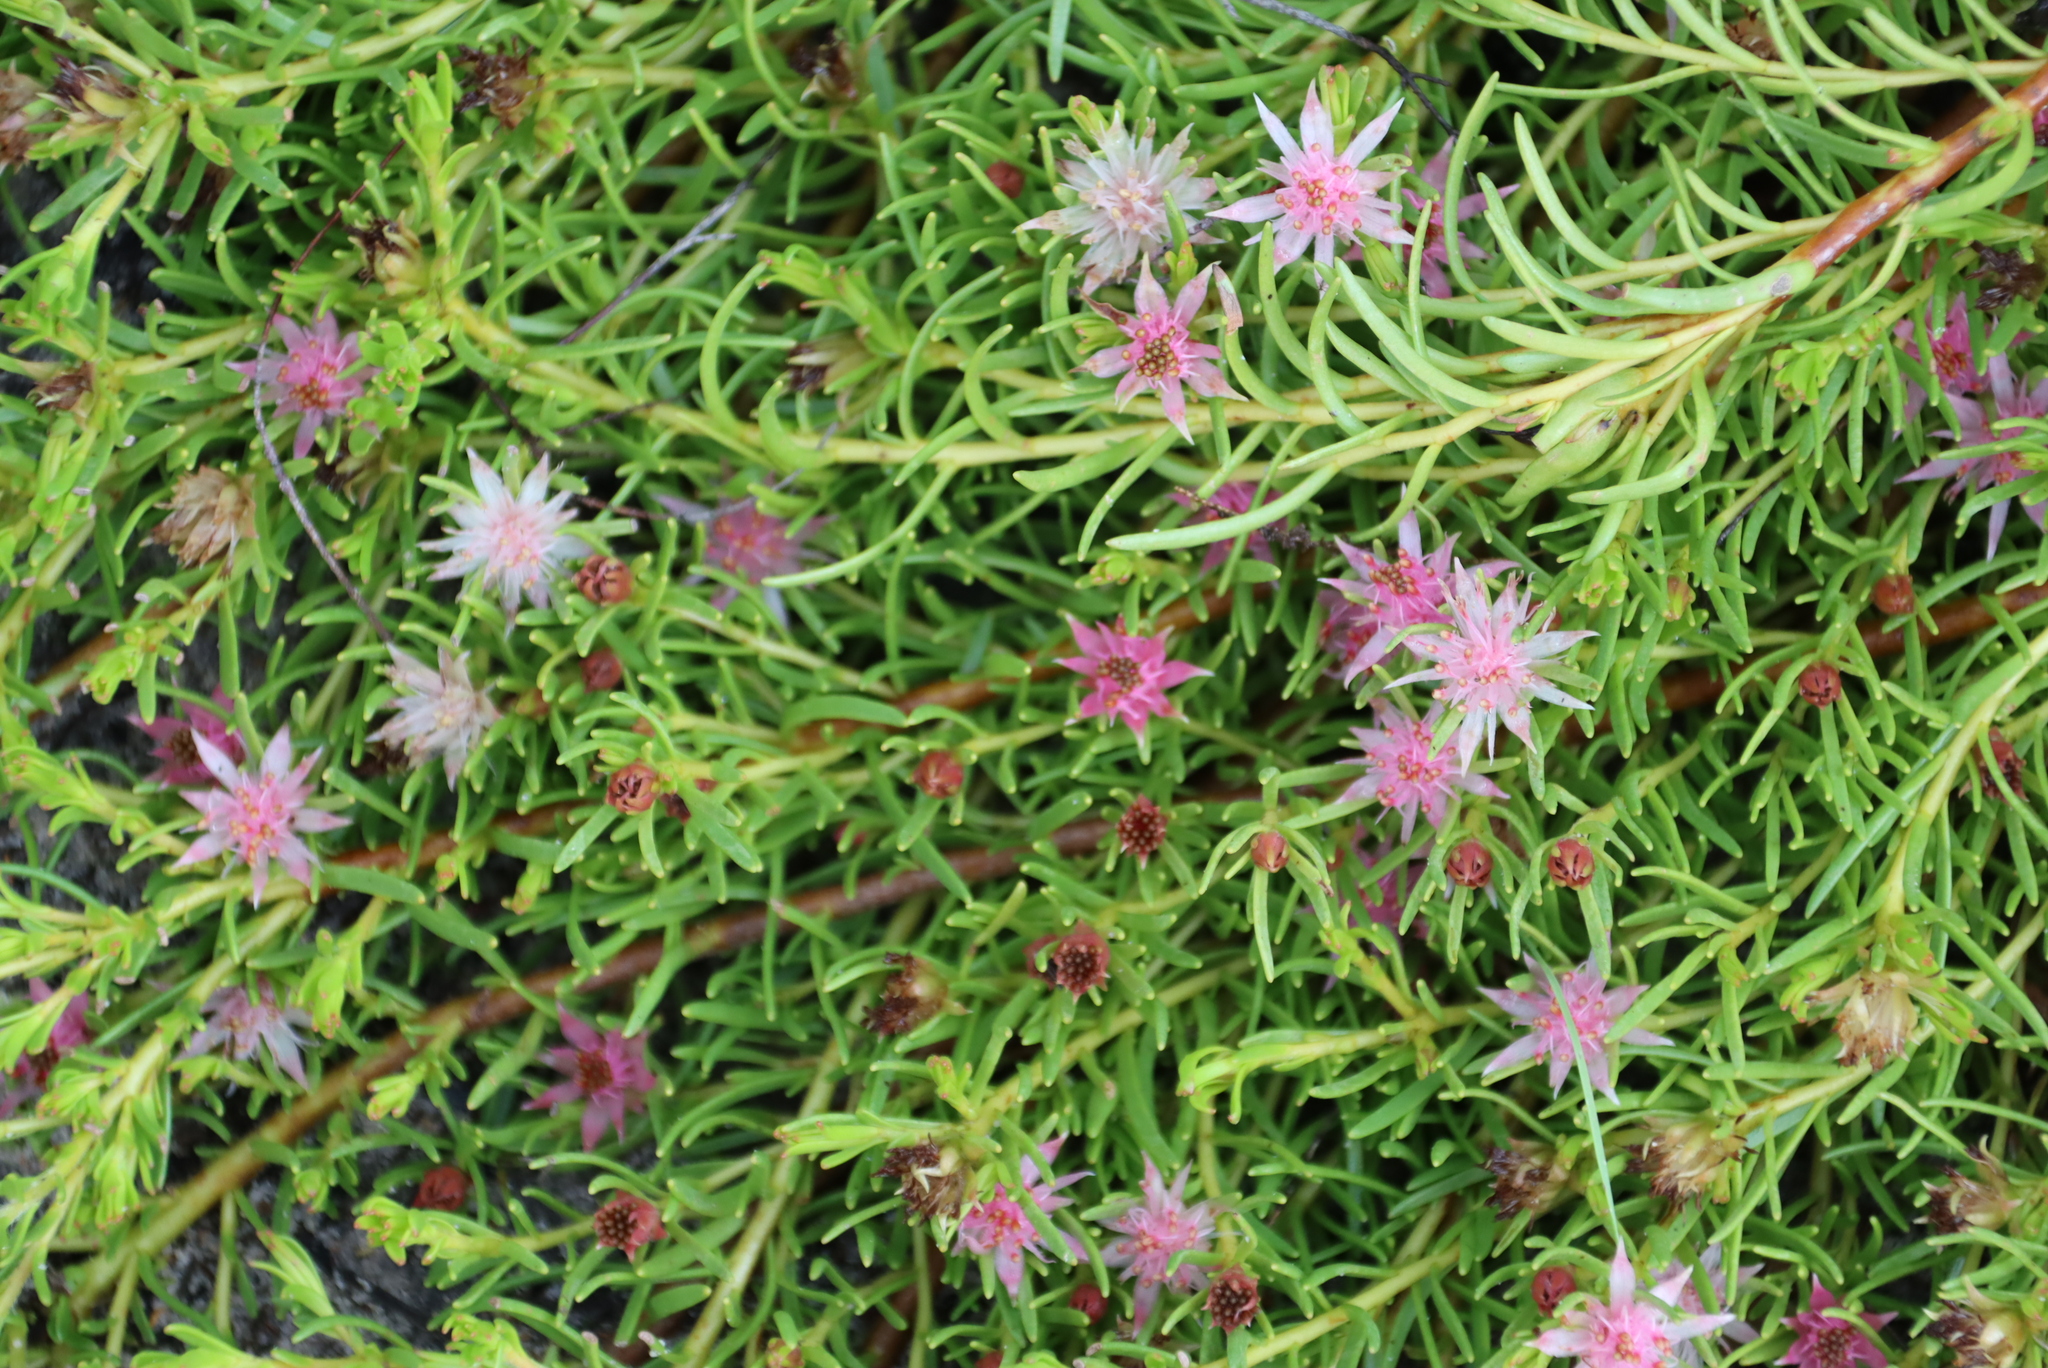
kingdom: Plantae
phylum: Tracheophyta
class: Magnoliopsida
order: Proteales
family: Proteaceae
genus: Diastella
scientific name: Diastella buekii
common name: Franschhoek silkypuff
